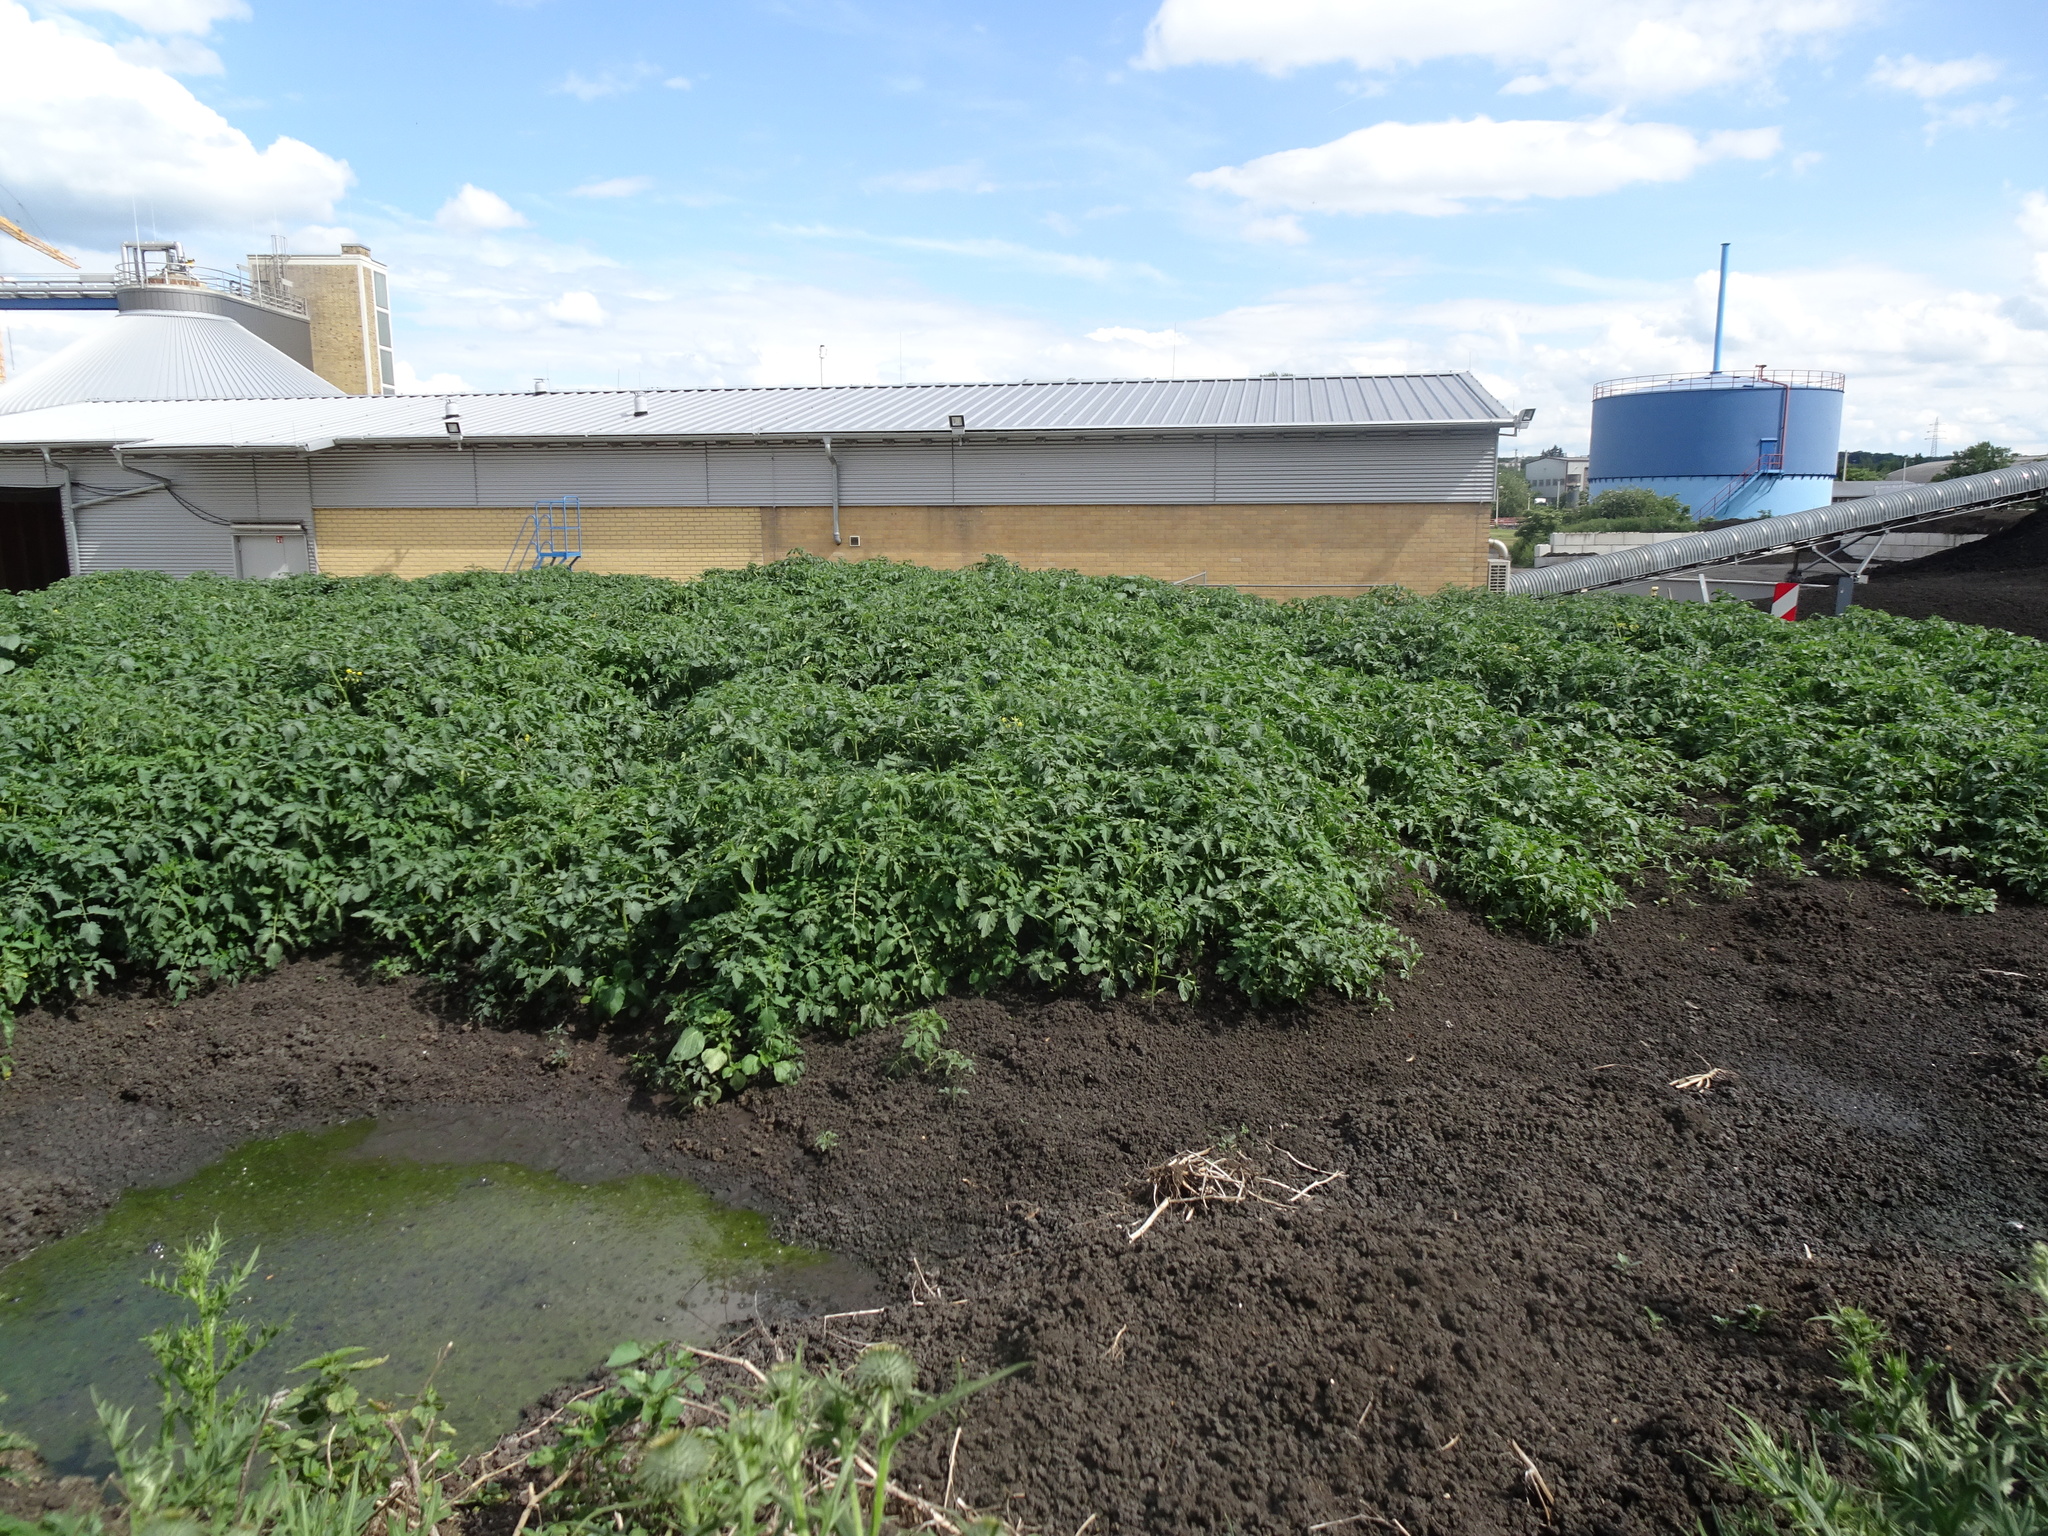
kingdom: Plantae
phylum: Tracheophyta
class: Magnoliopsida
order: Solanales
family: Solanaceae
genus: Solanum
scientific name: Solanum lycopersicum
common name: Garden tomato
